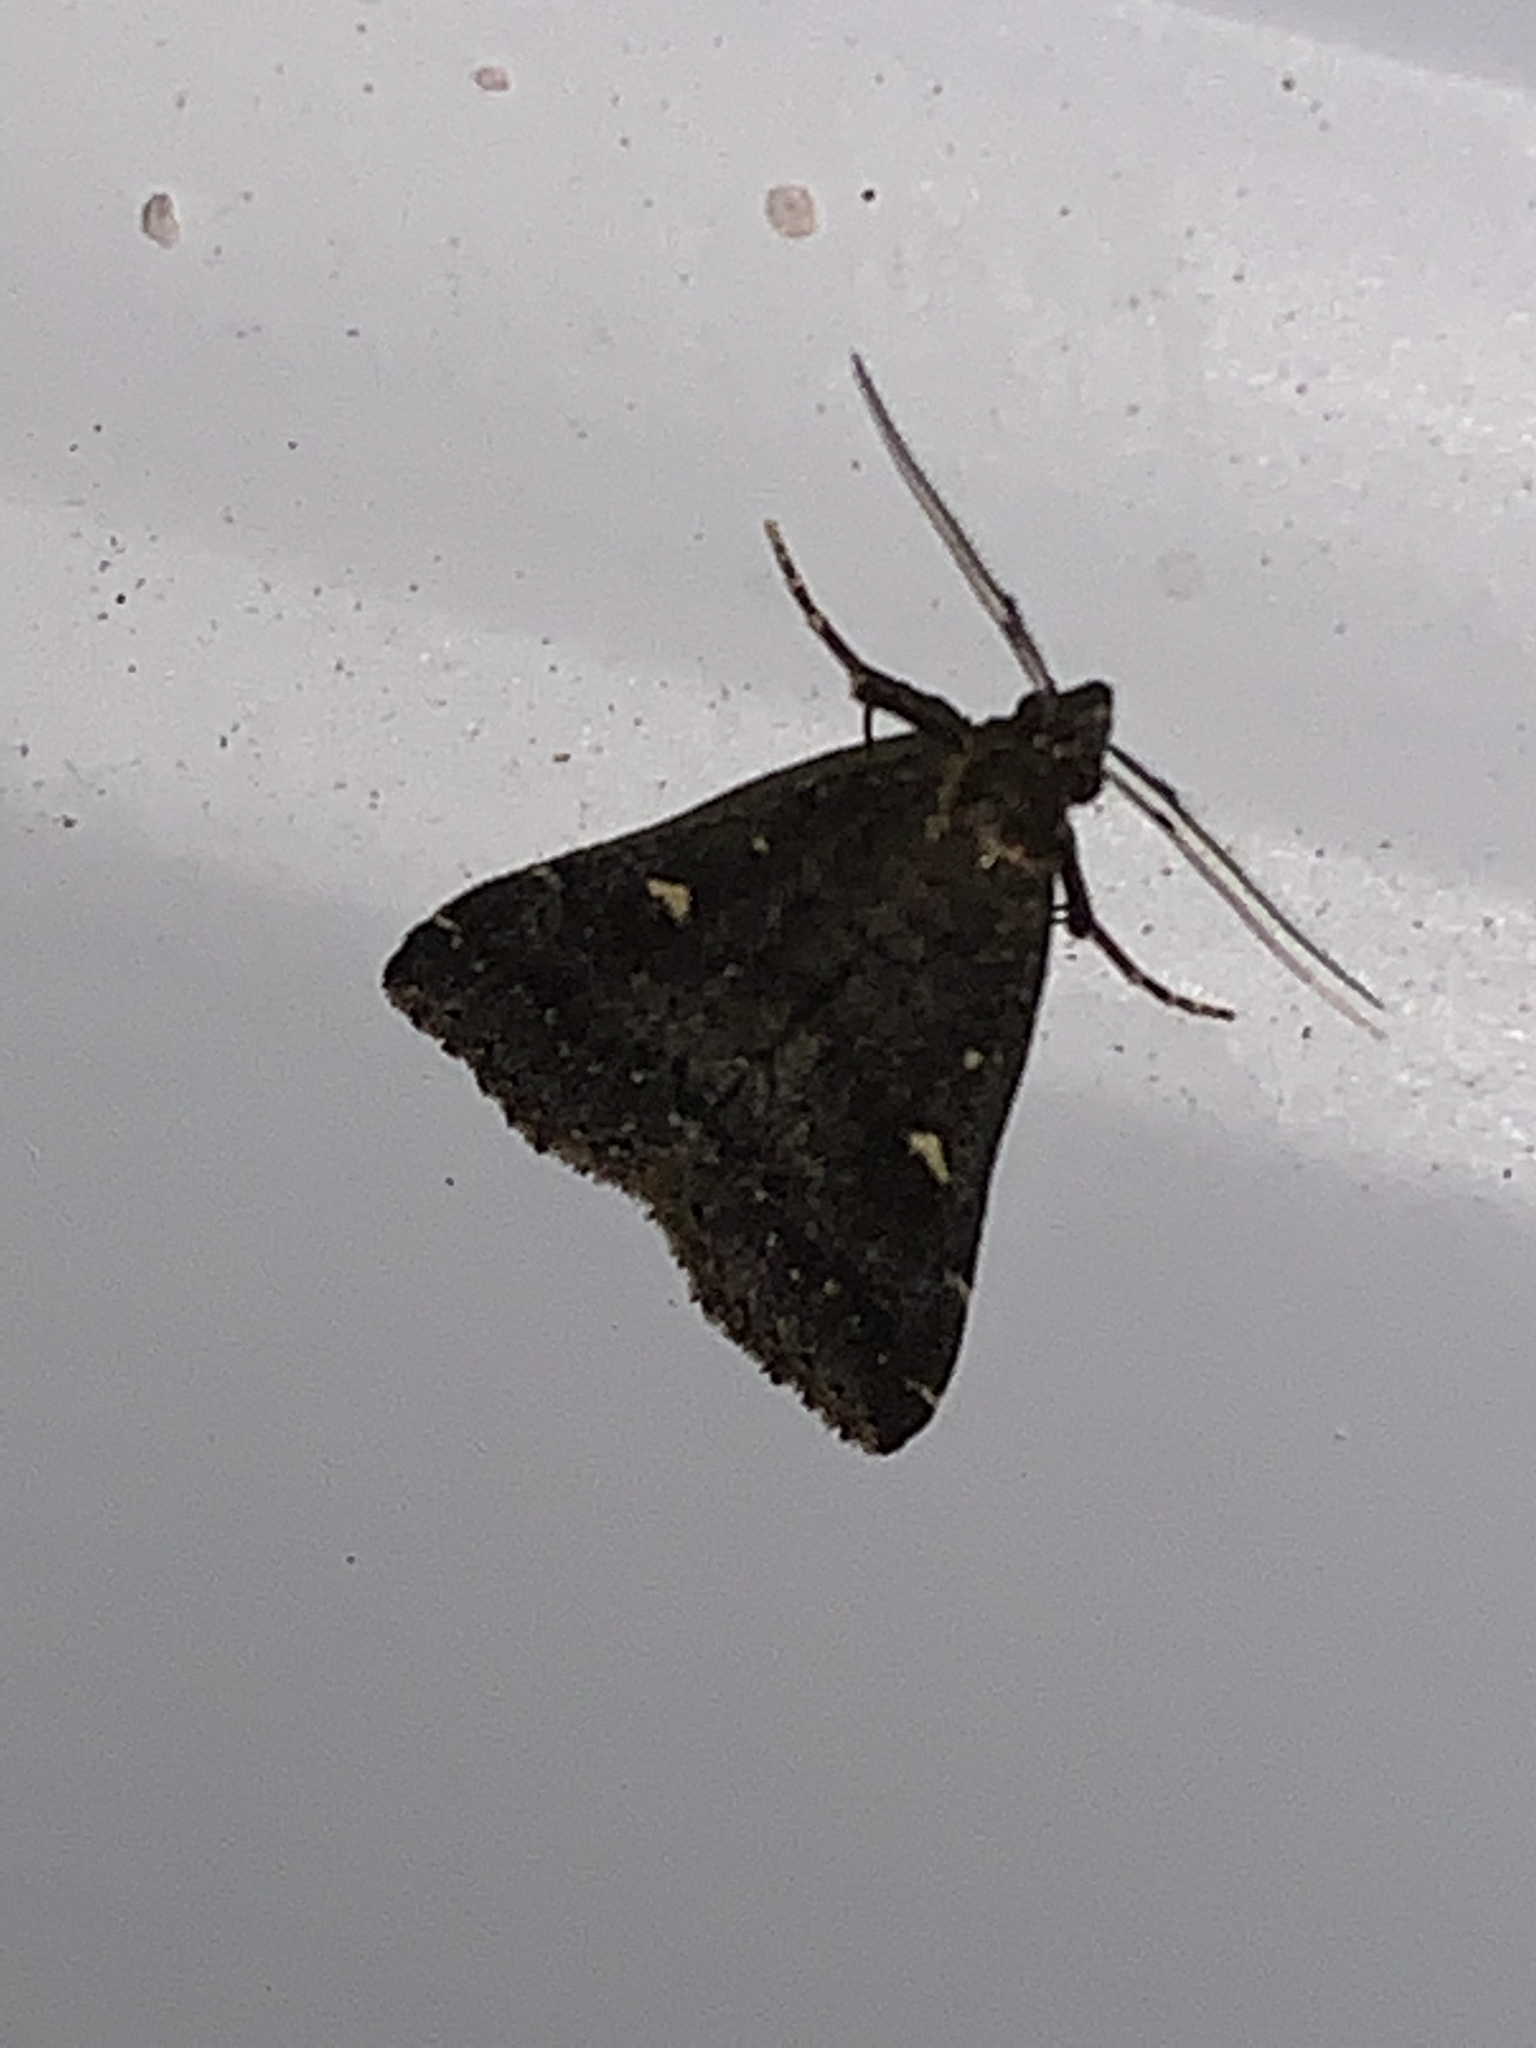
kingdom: Animalia
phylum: Arthropoda
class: Insecta
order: Lepidoptera
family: Erebidae
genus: Tetanolita
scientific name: Tetanolita mynesalis
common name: Smoky tetanolita moth
